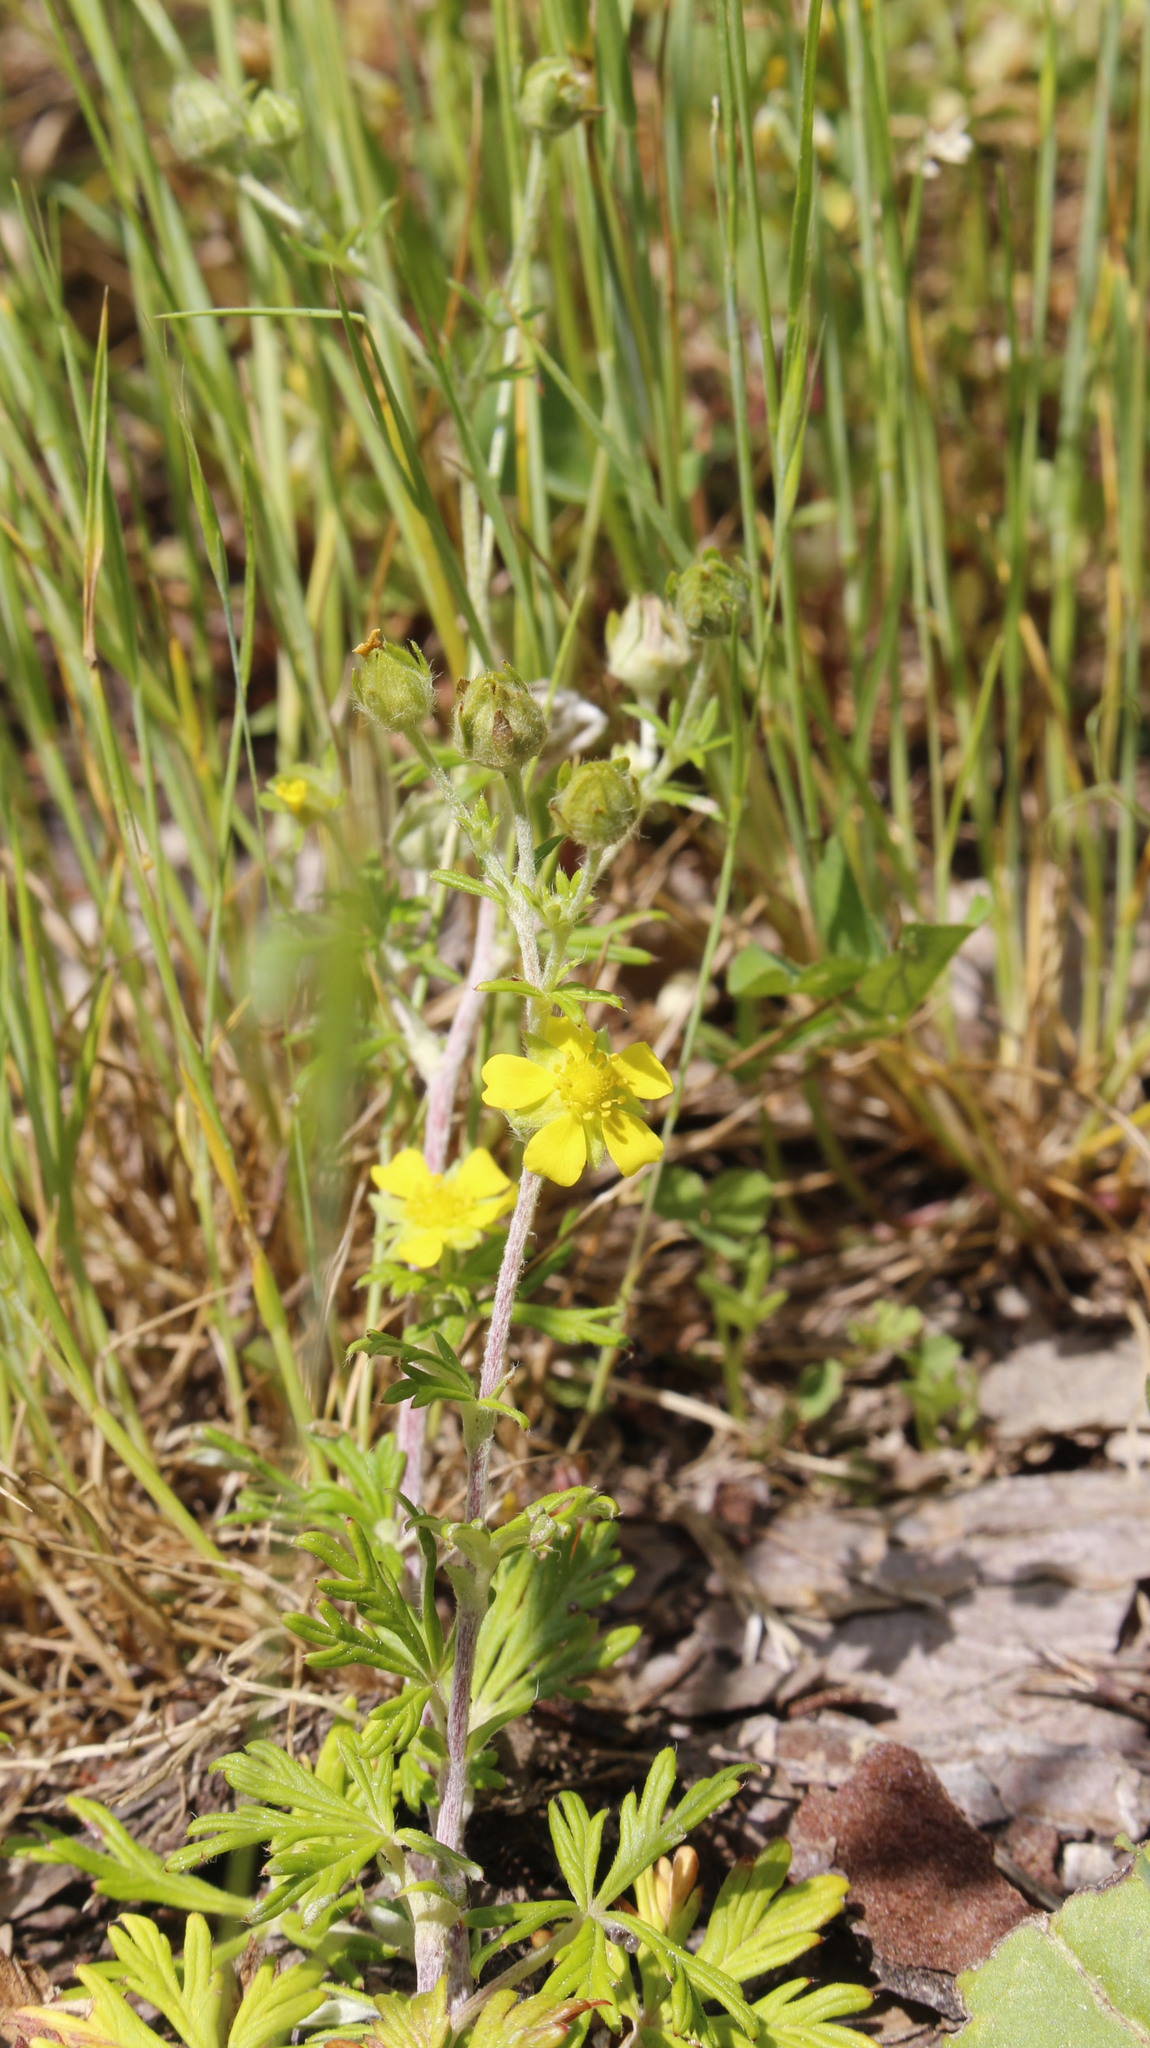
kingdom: Plantae
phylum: Tracheophyta
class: Magnoliopsida
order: Rosales
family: Rosaceae
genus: Potentilla
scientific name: Potentilla argentea
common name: Hoary cinquefoil
